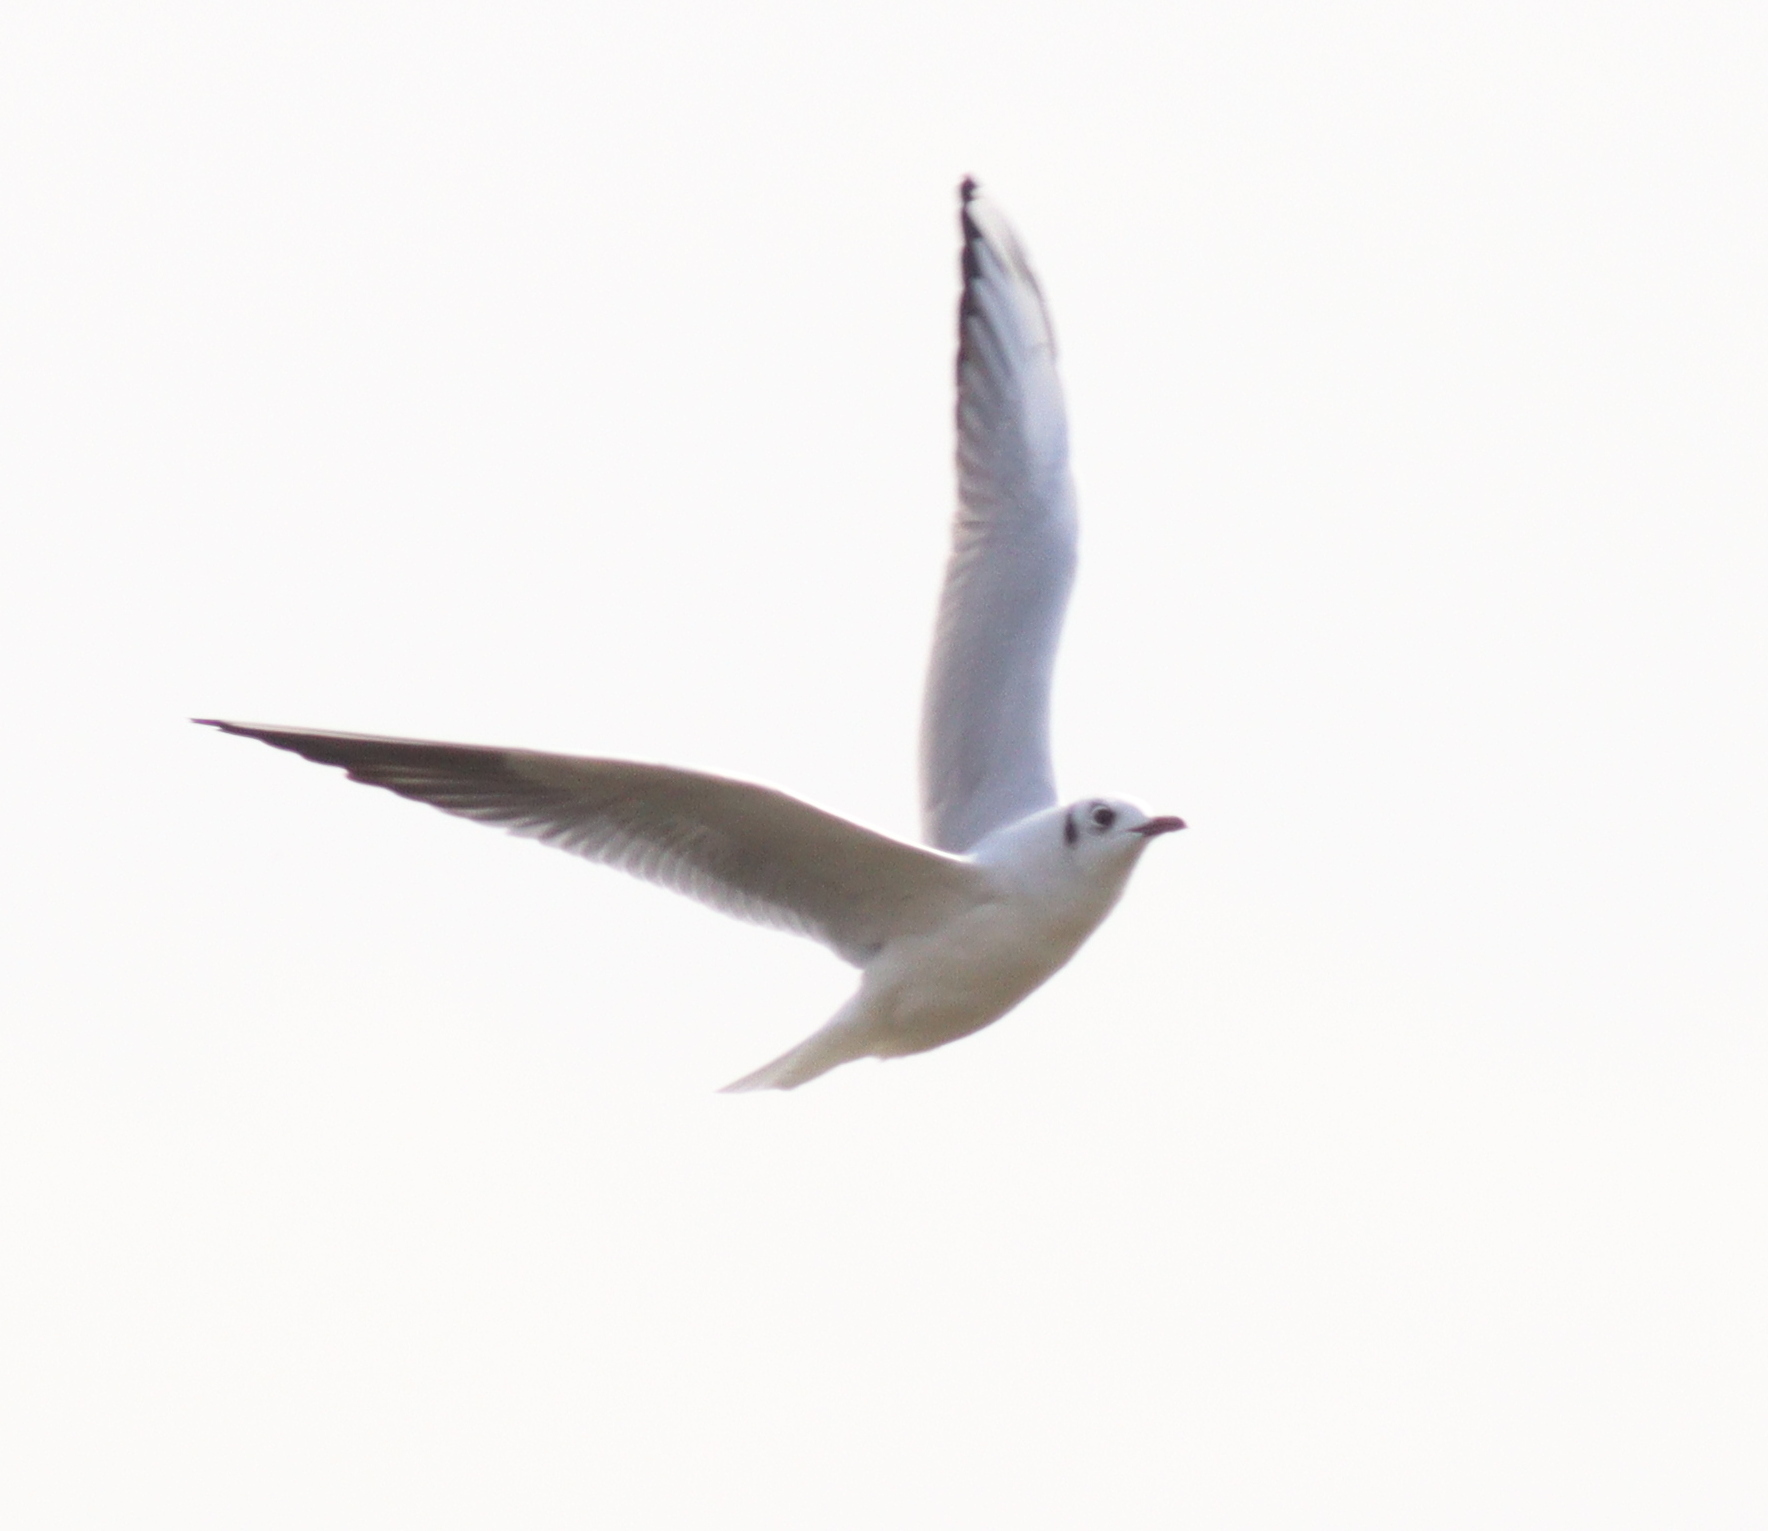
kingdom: Animalia
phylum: Chordata
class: Aves
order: Charadriiformes
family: Laridae
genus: Chroicocephalus
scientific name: Chroicocephalus ridibundus
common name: Black-headed gull
